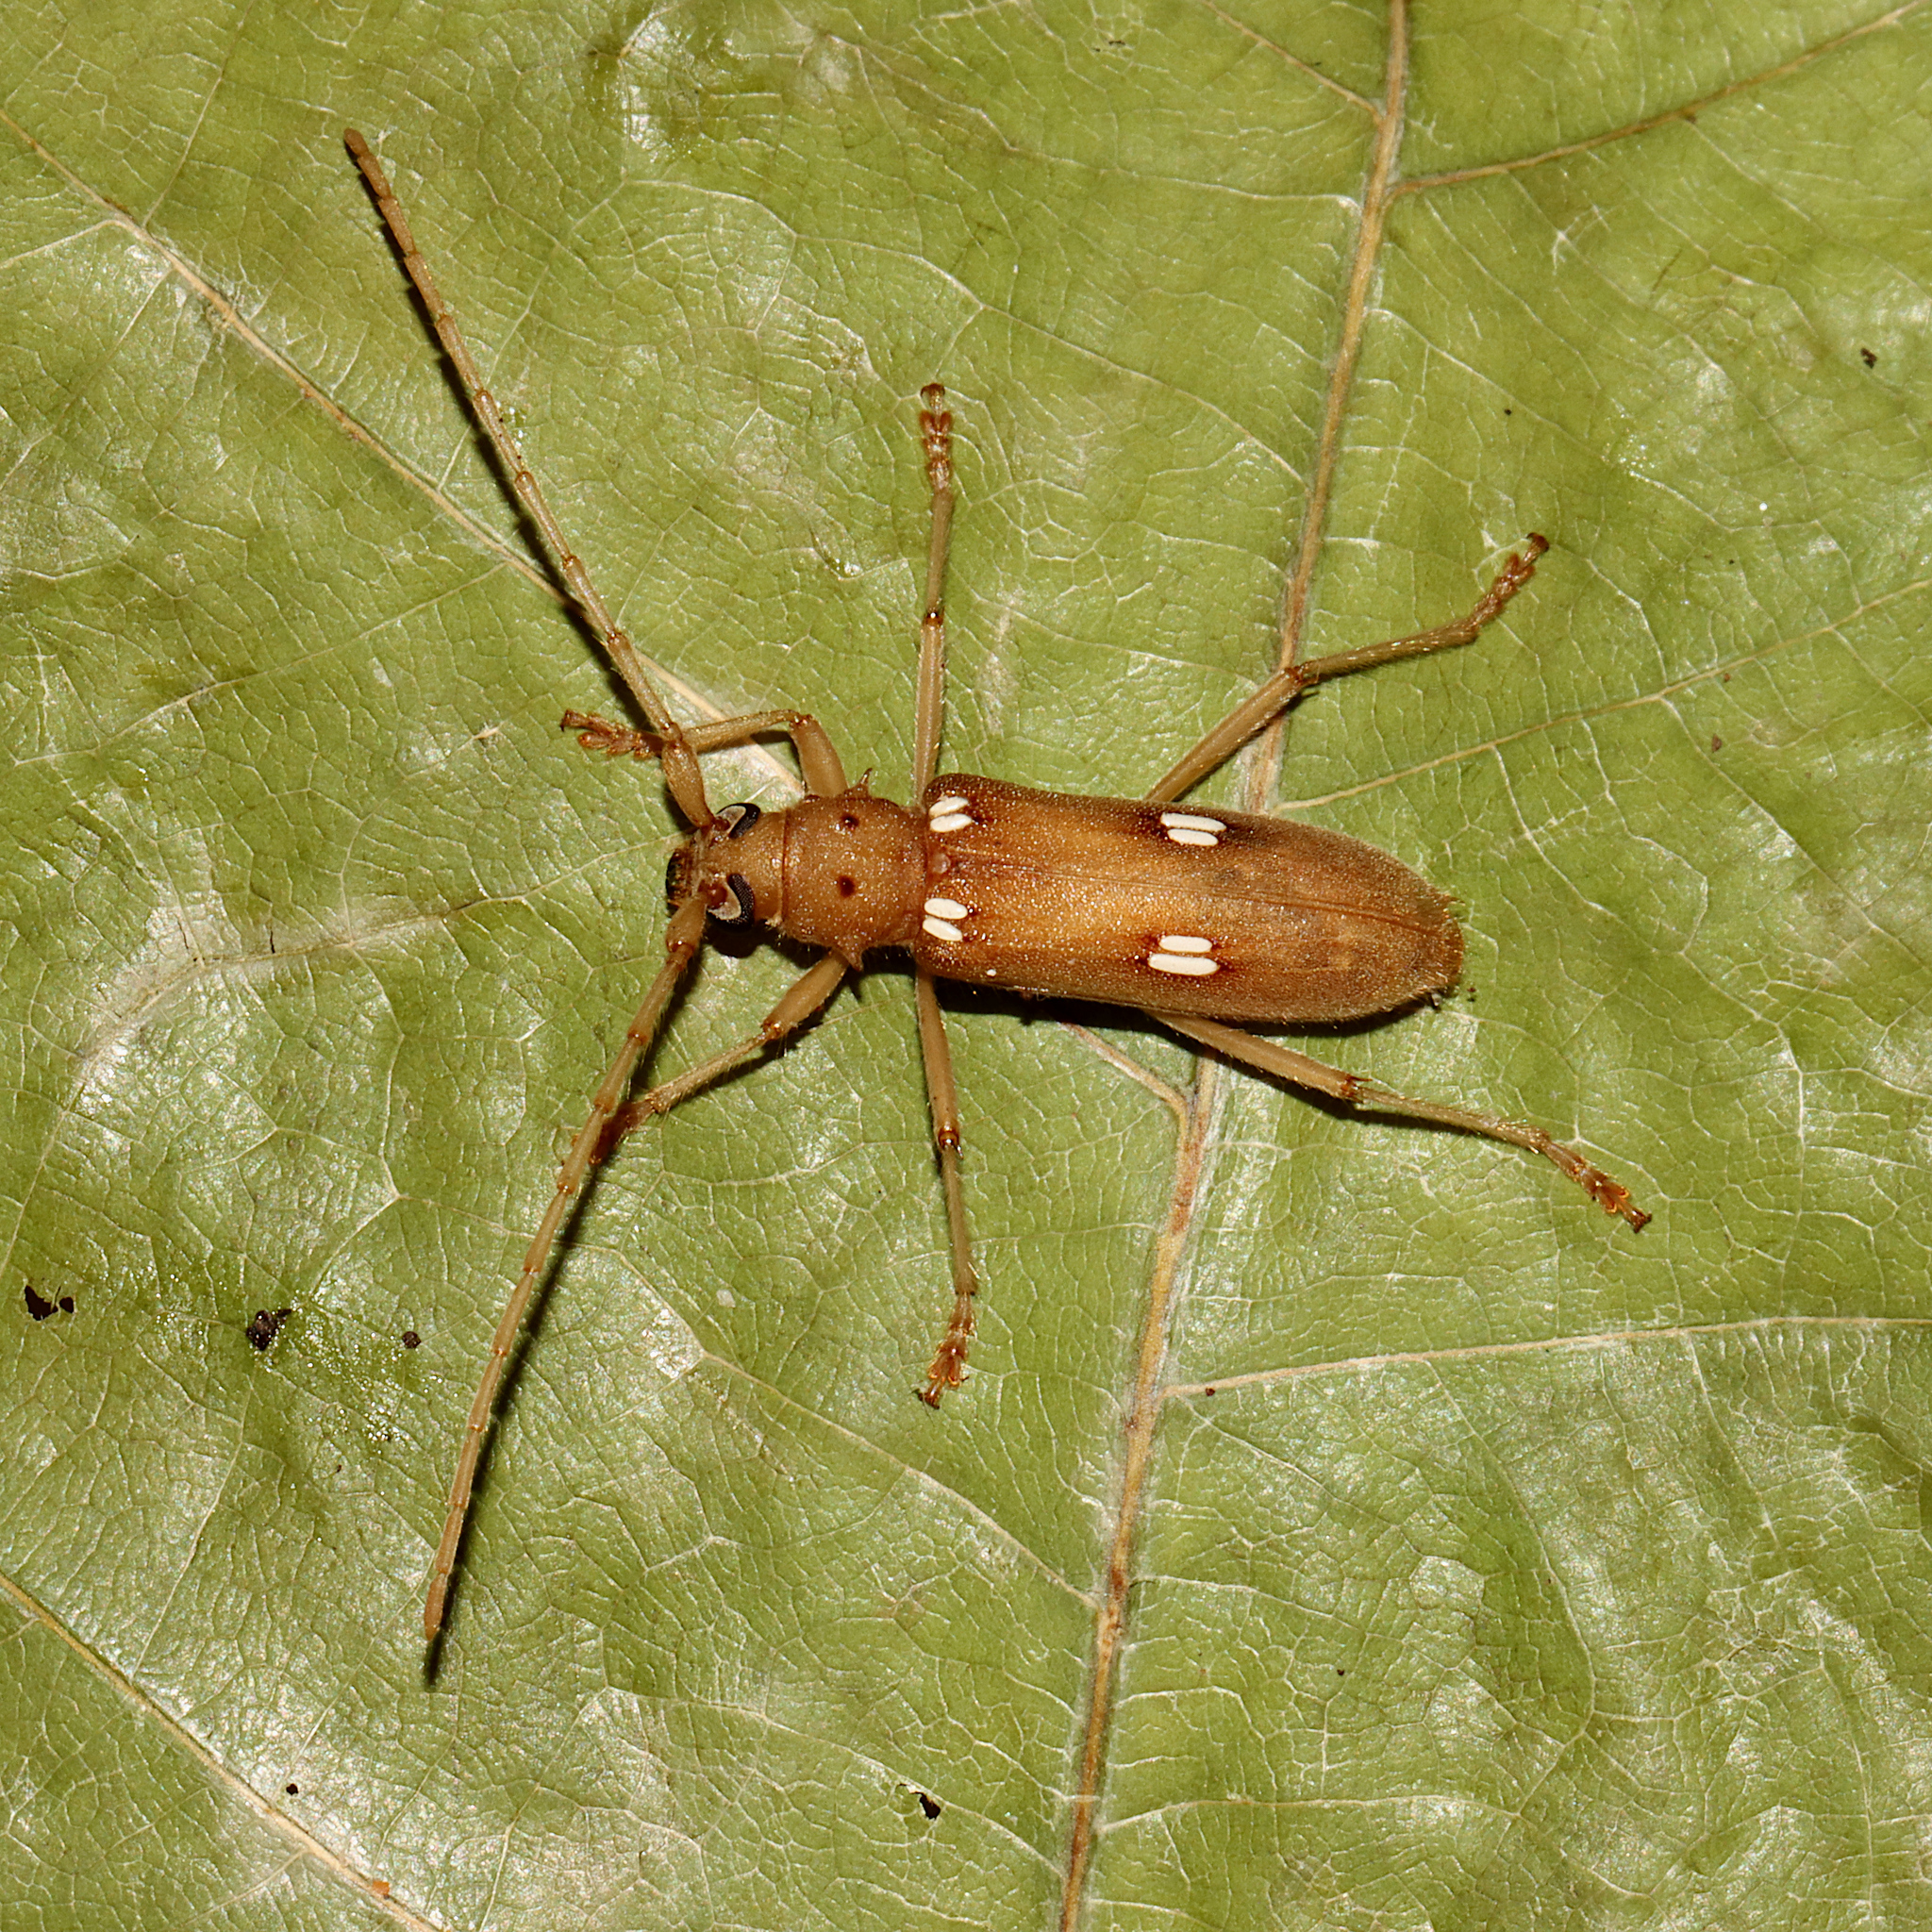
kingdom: Animalia
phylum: Arthropoda
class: Insecta
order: Coleoptera
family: Cerambycidae
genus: Eburia
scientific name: Eburia quadrigeminata
